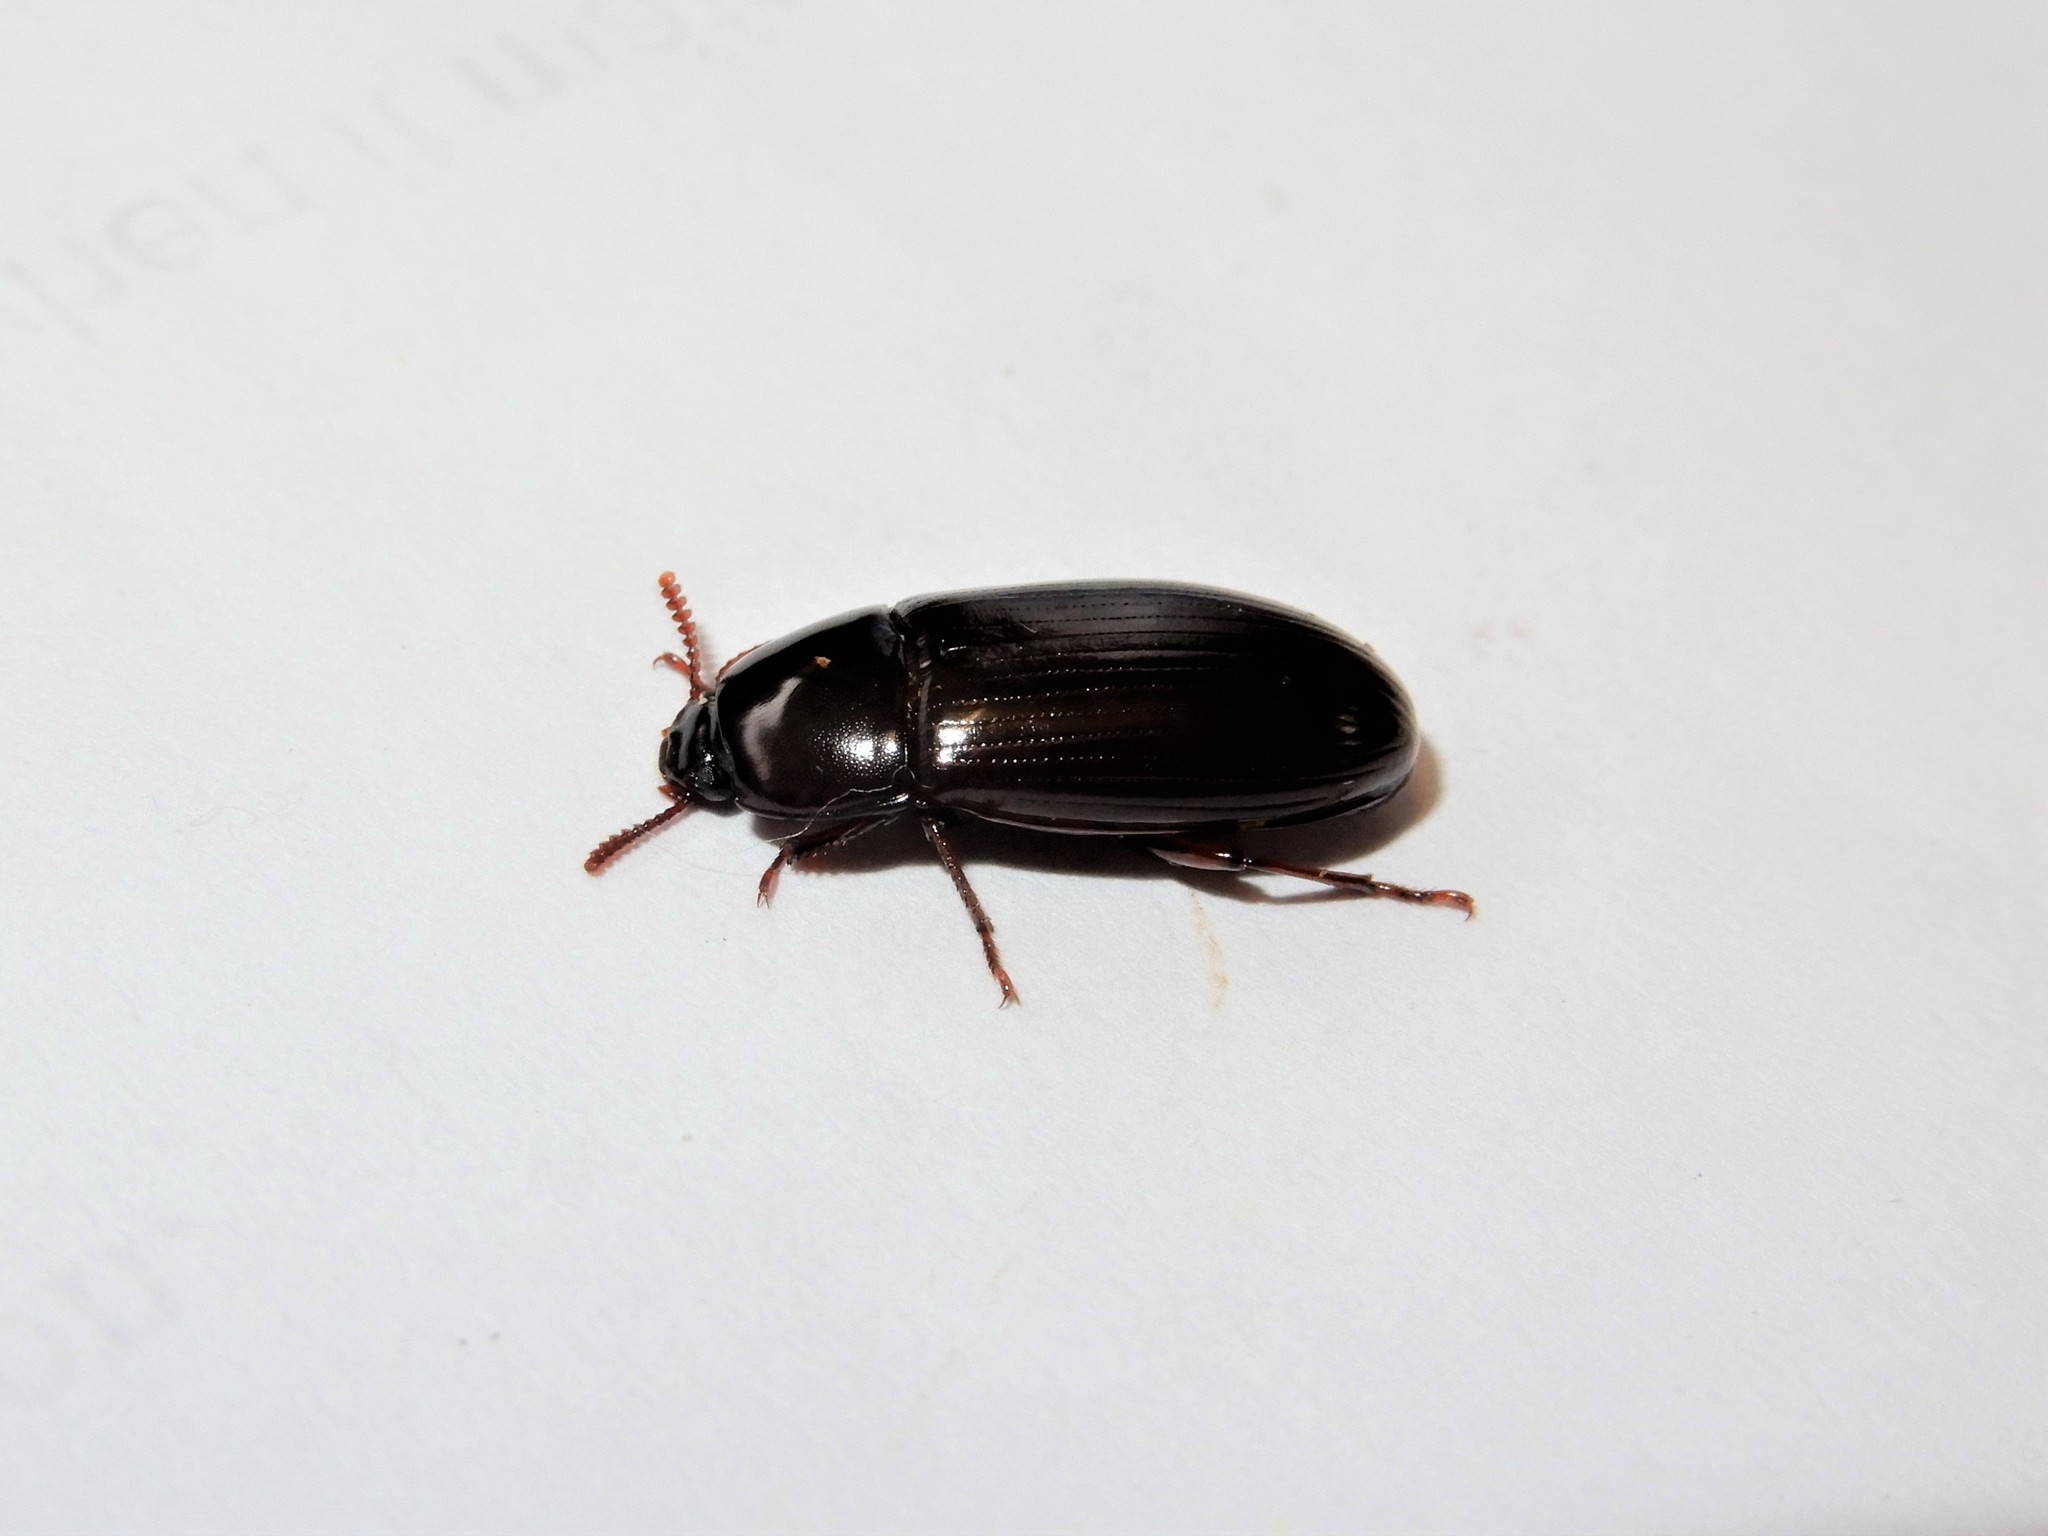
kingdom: Animalia
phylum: Arthropoda
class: Insecta
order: Coleoptera
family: Tenebrionidae
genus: Uloma
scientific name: Uloma tenebrionoides
